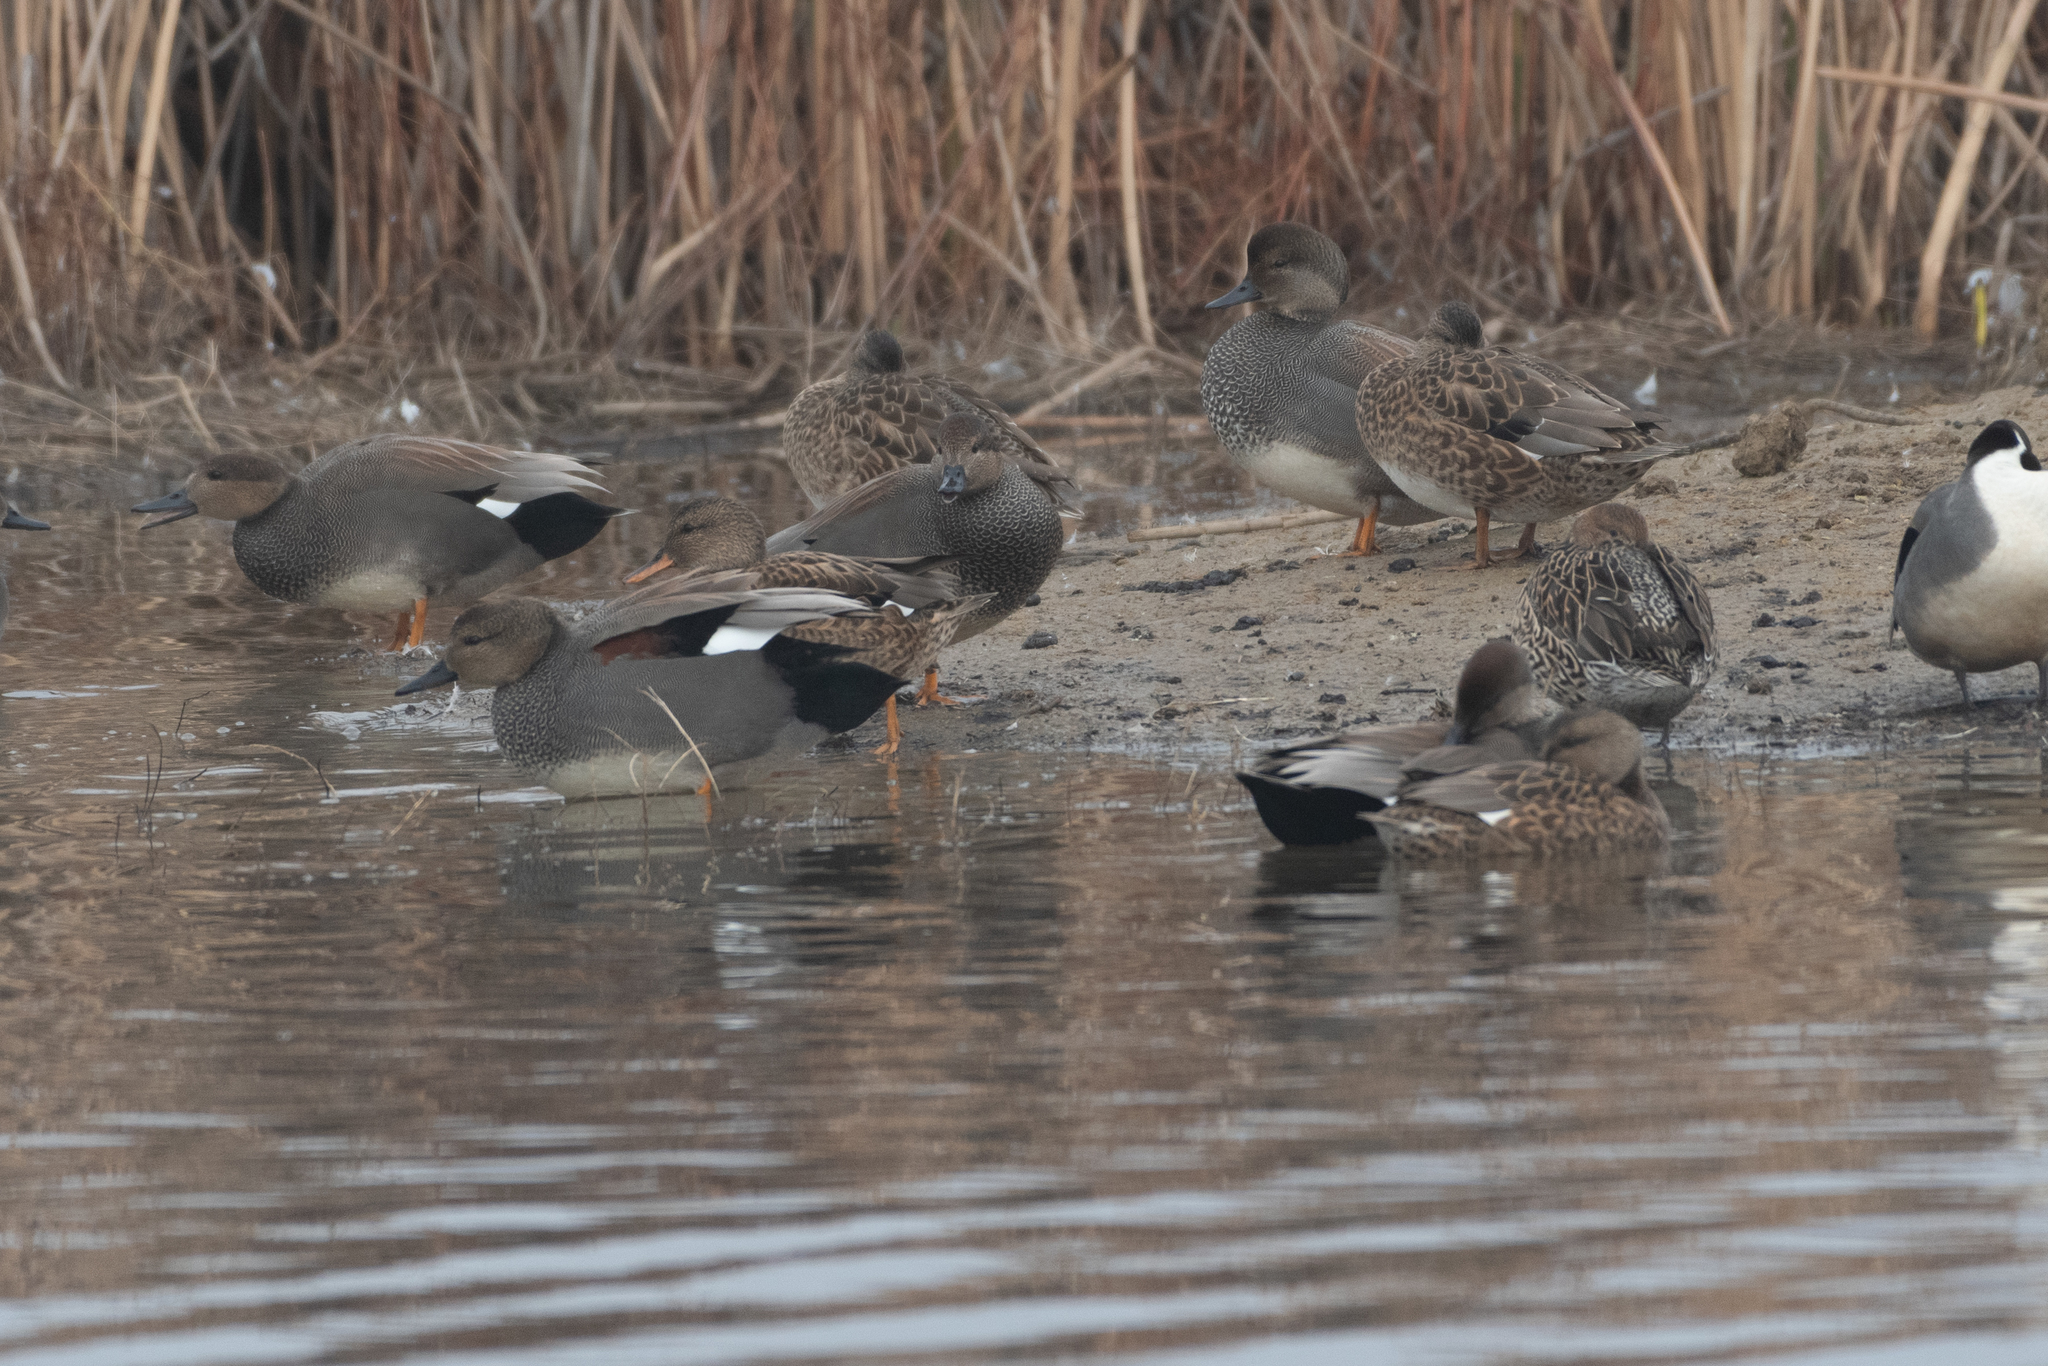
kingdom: Animalia
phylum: Chordata
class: Aves
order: Anseriformes
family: Anatidae
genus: Mareca
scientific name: Mareca strepera
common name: Gadwall
